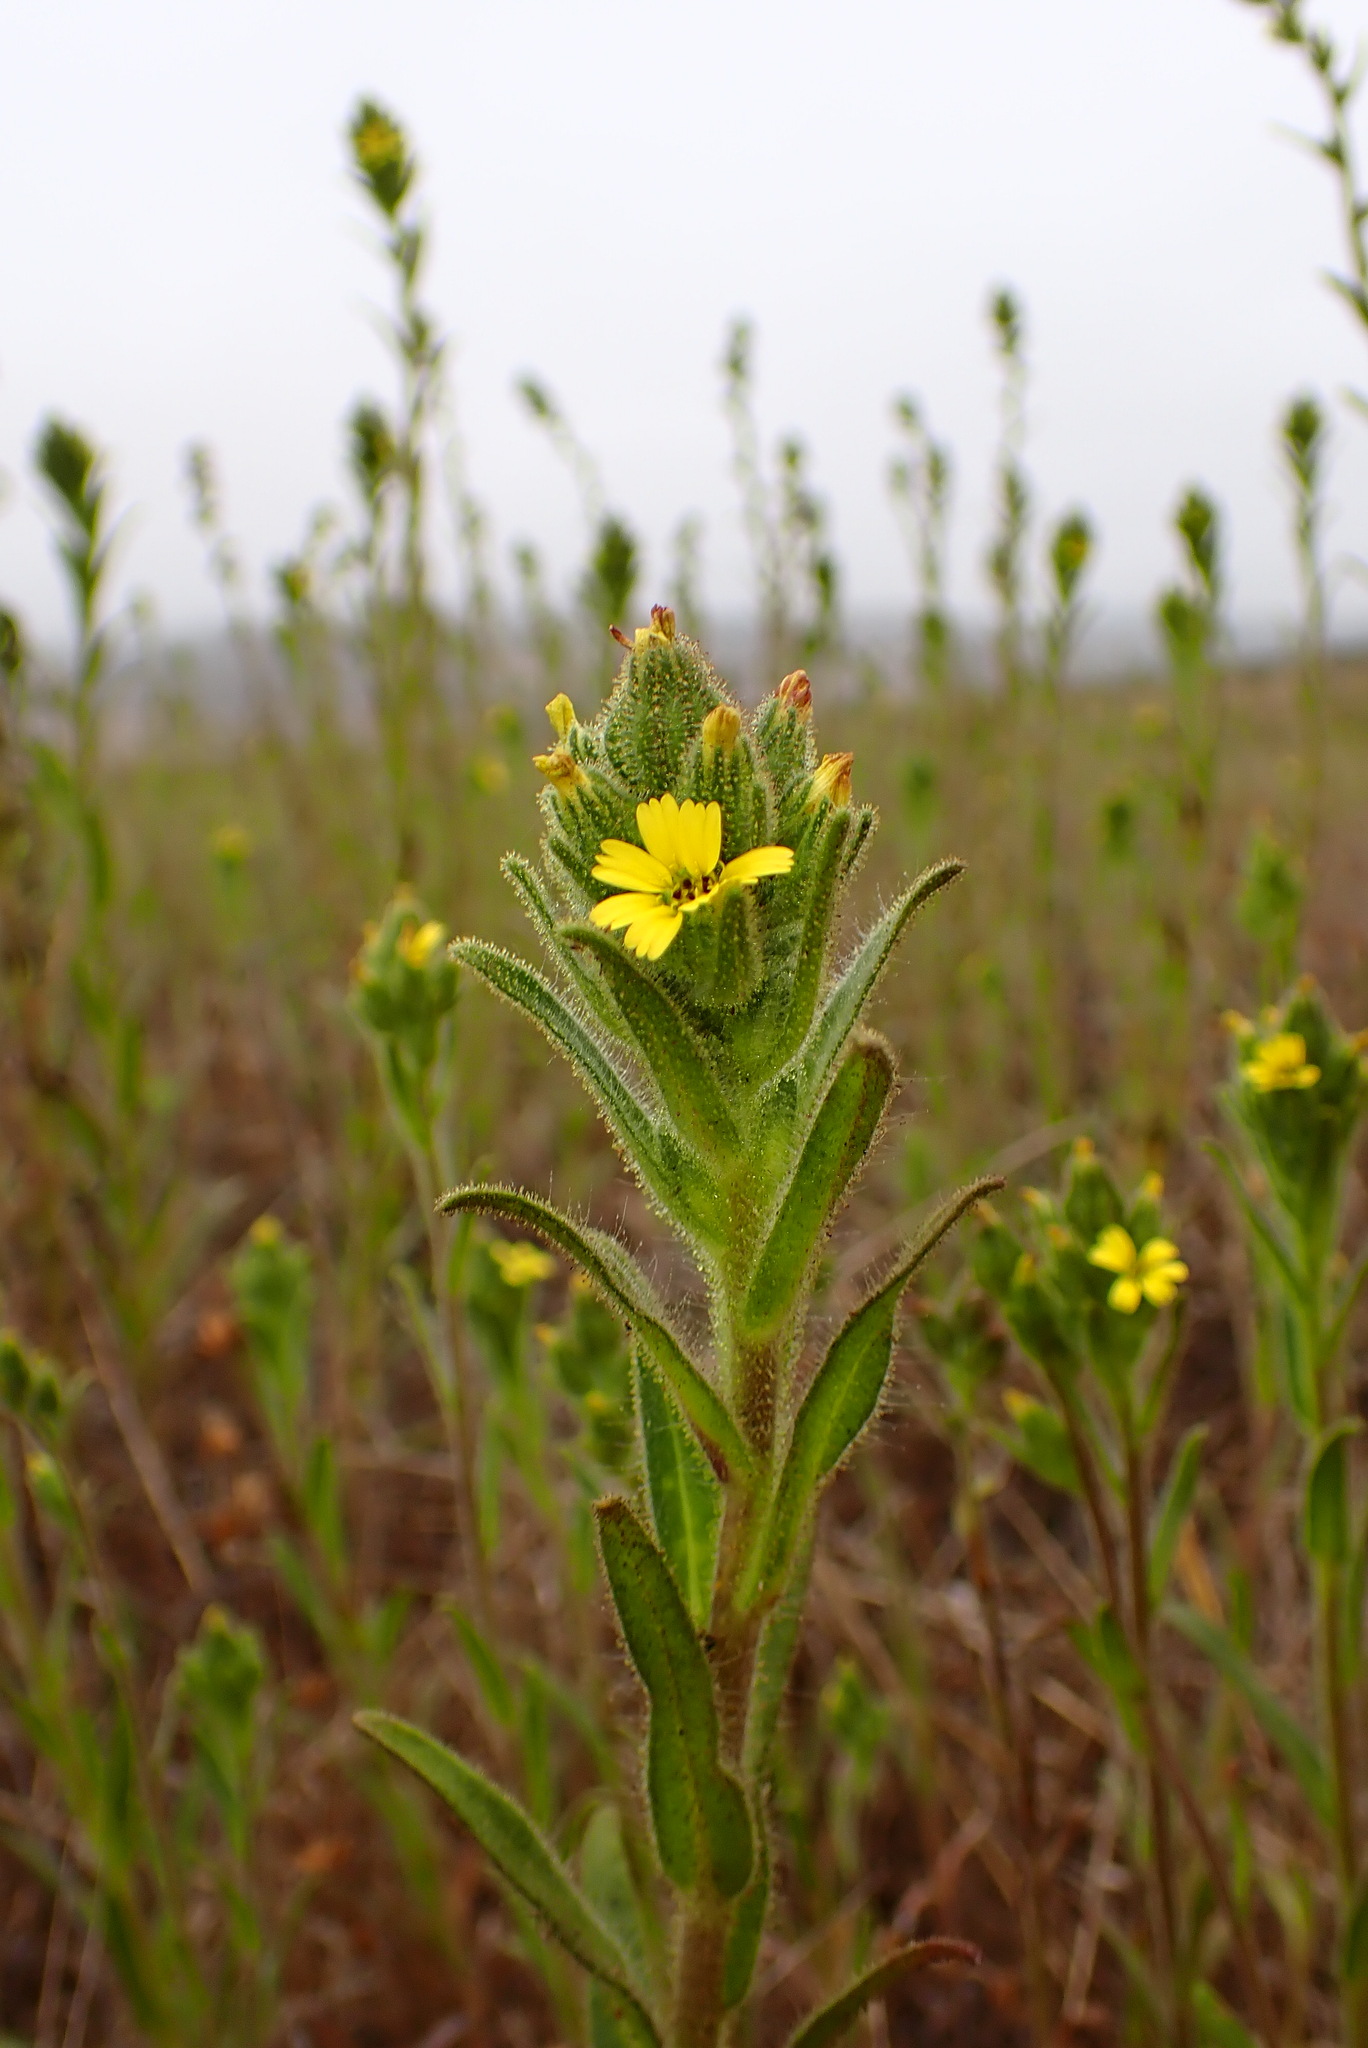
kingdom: Plantae
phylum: Tracheophyta
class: Magnoliopsida
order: Asterales
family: Asteraceae
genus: Madia
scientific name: Madia sativa
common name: Coast tarweed
